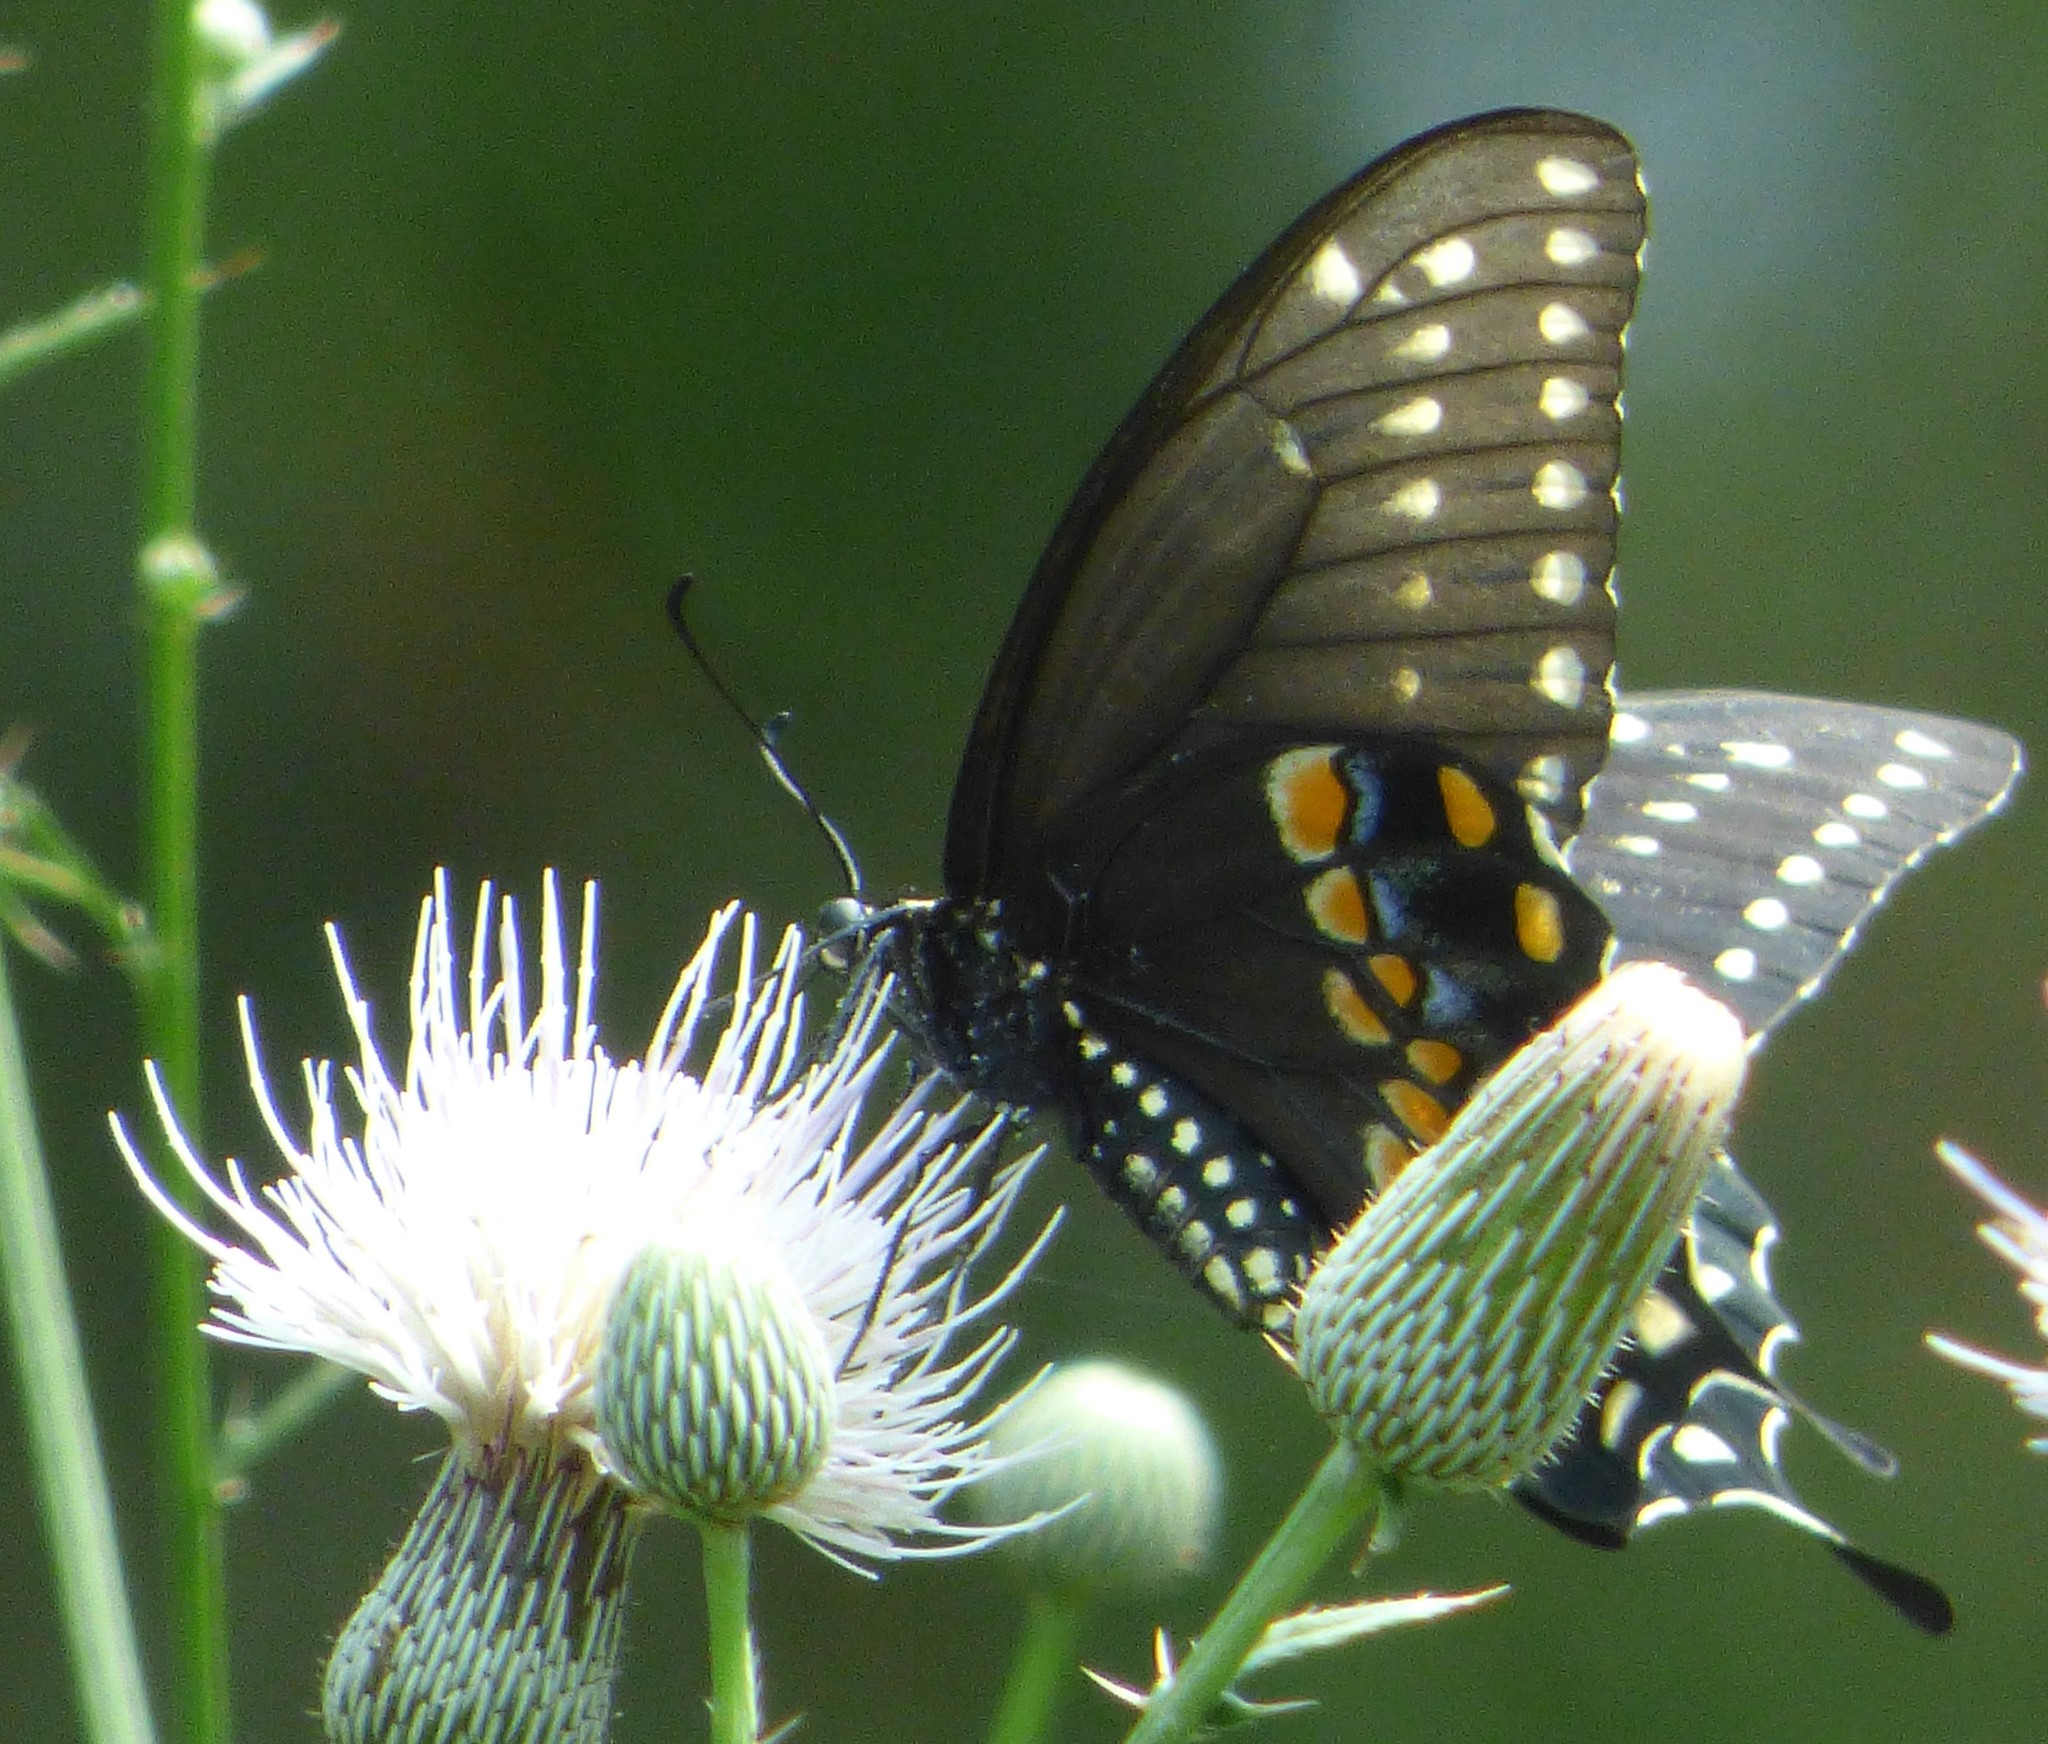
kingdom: Animalia
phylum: Arthropoda
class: Insecta
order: Lepidoptera
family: Papilionidae
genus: Papilio
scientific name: Papilio polyxenes
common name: Black swallowtail
